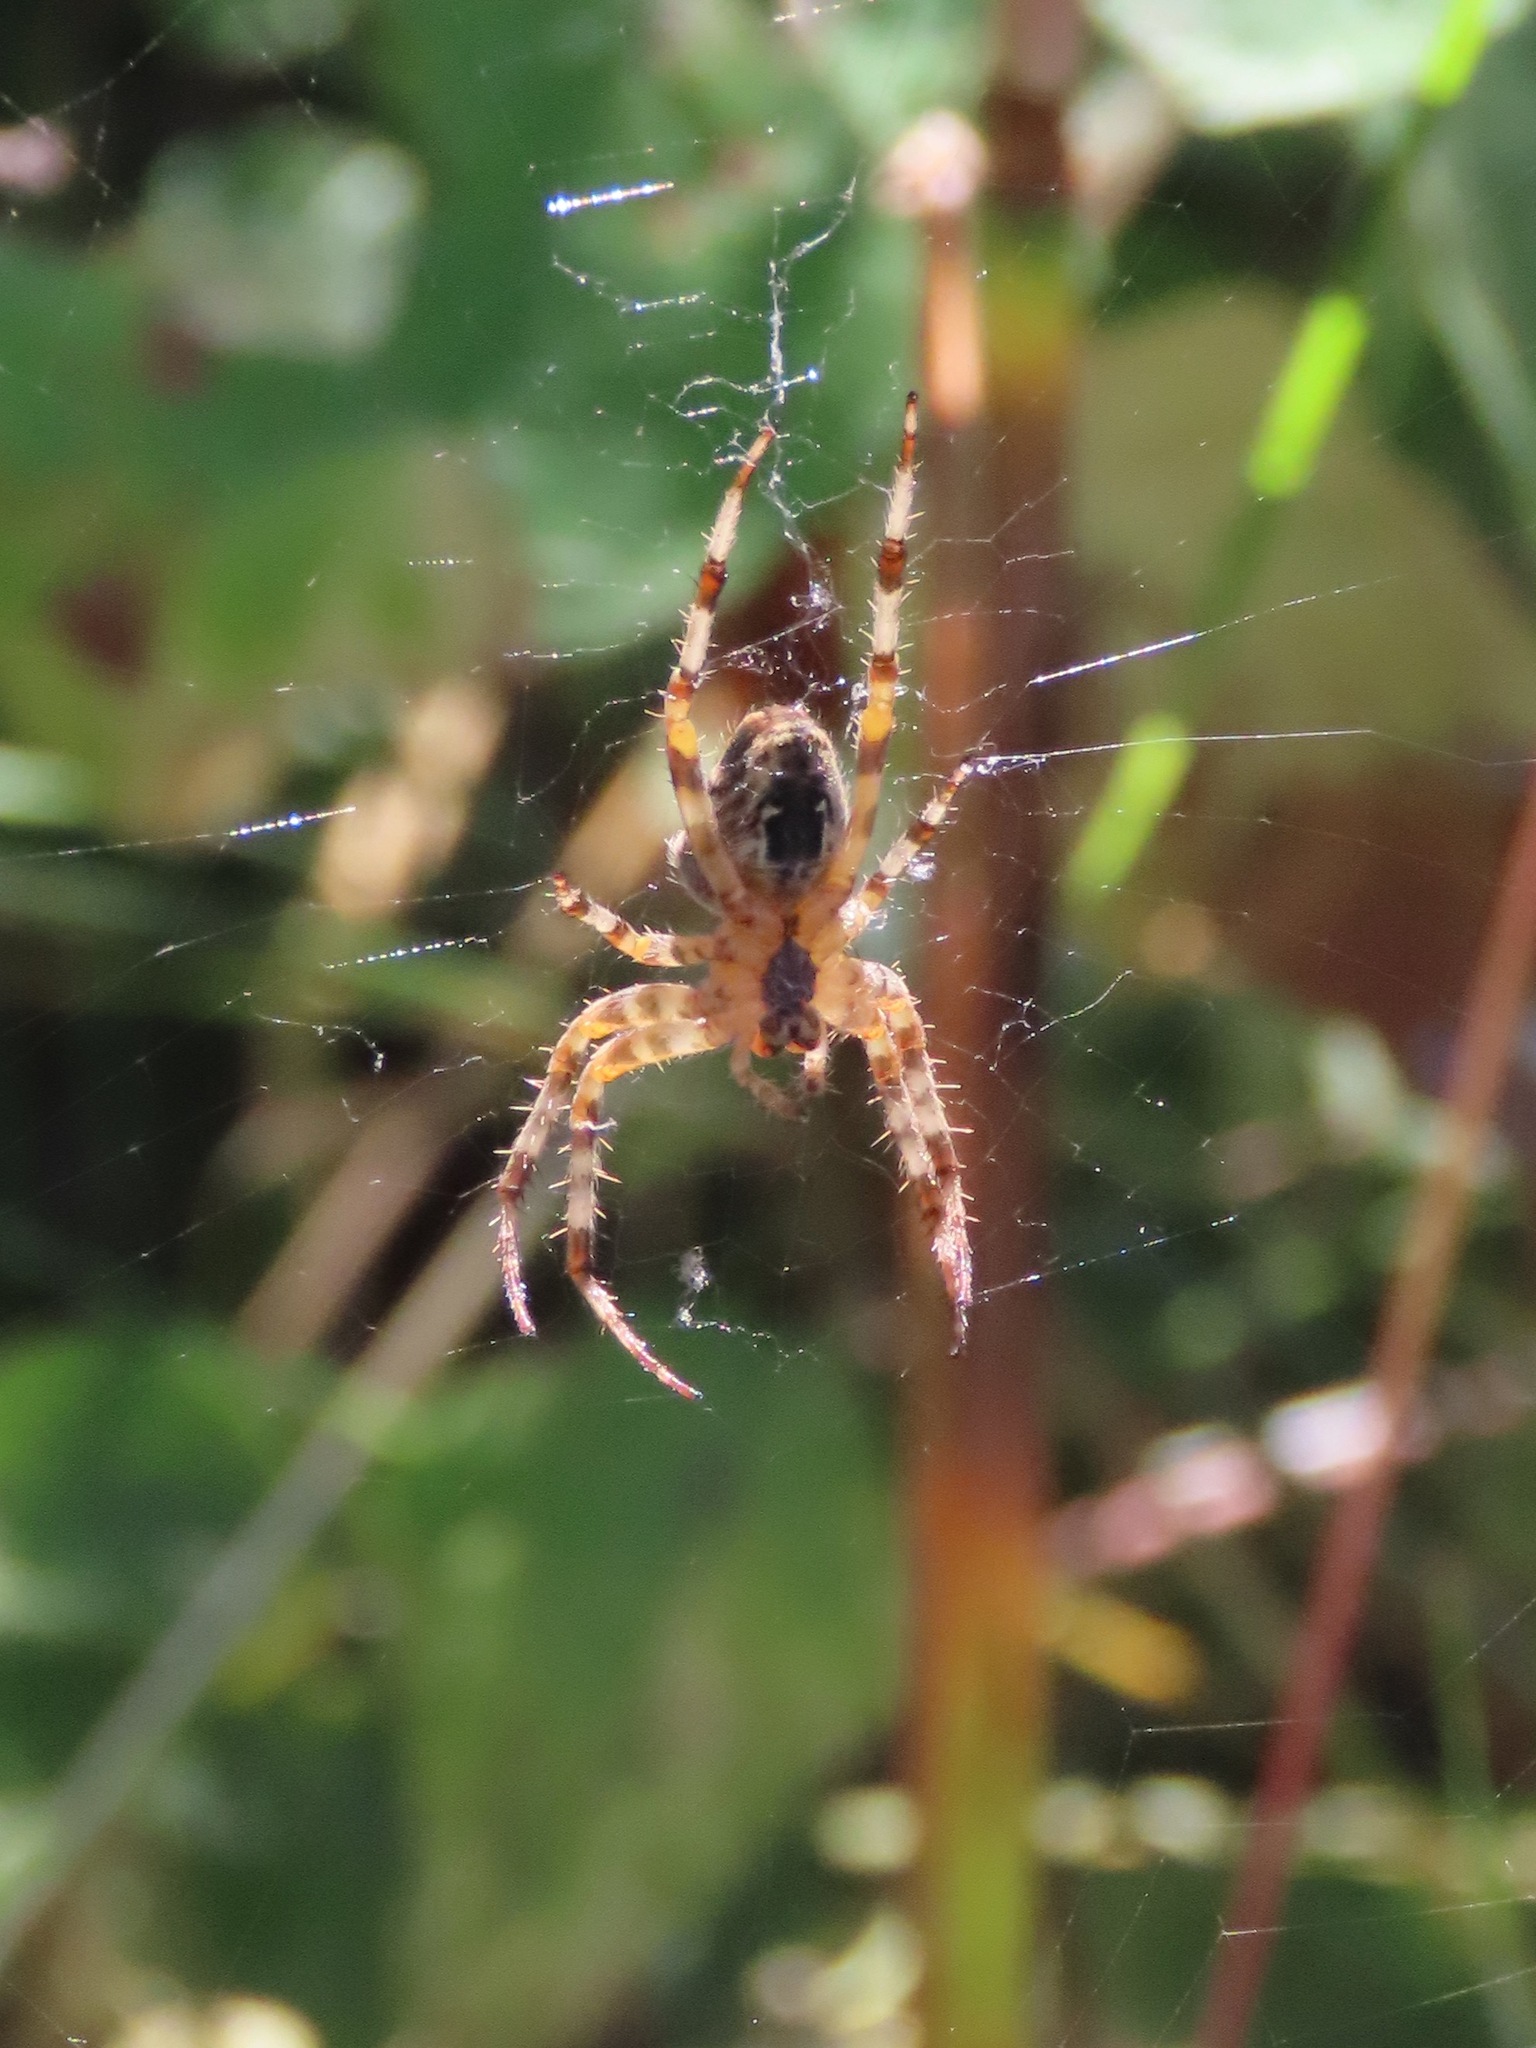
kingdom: Animalia
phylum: Arthropoda
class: Arachnida
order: Araneae
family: Araneidae
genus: Araneus
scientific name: Araneus diadematus
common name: Cross orbweaver
